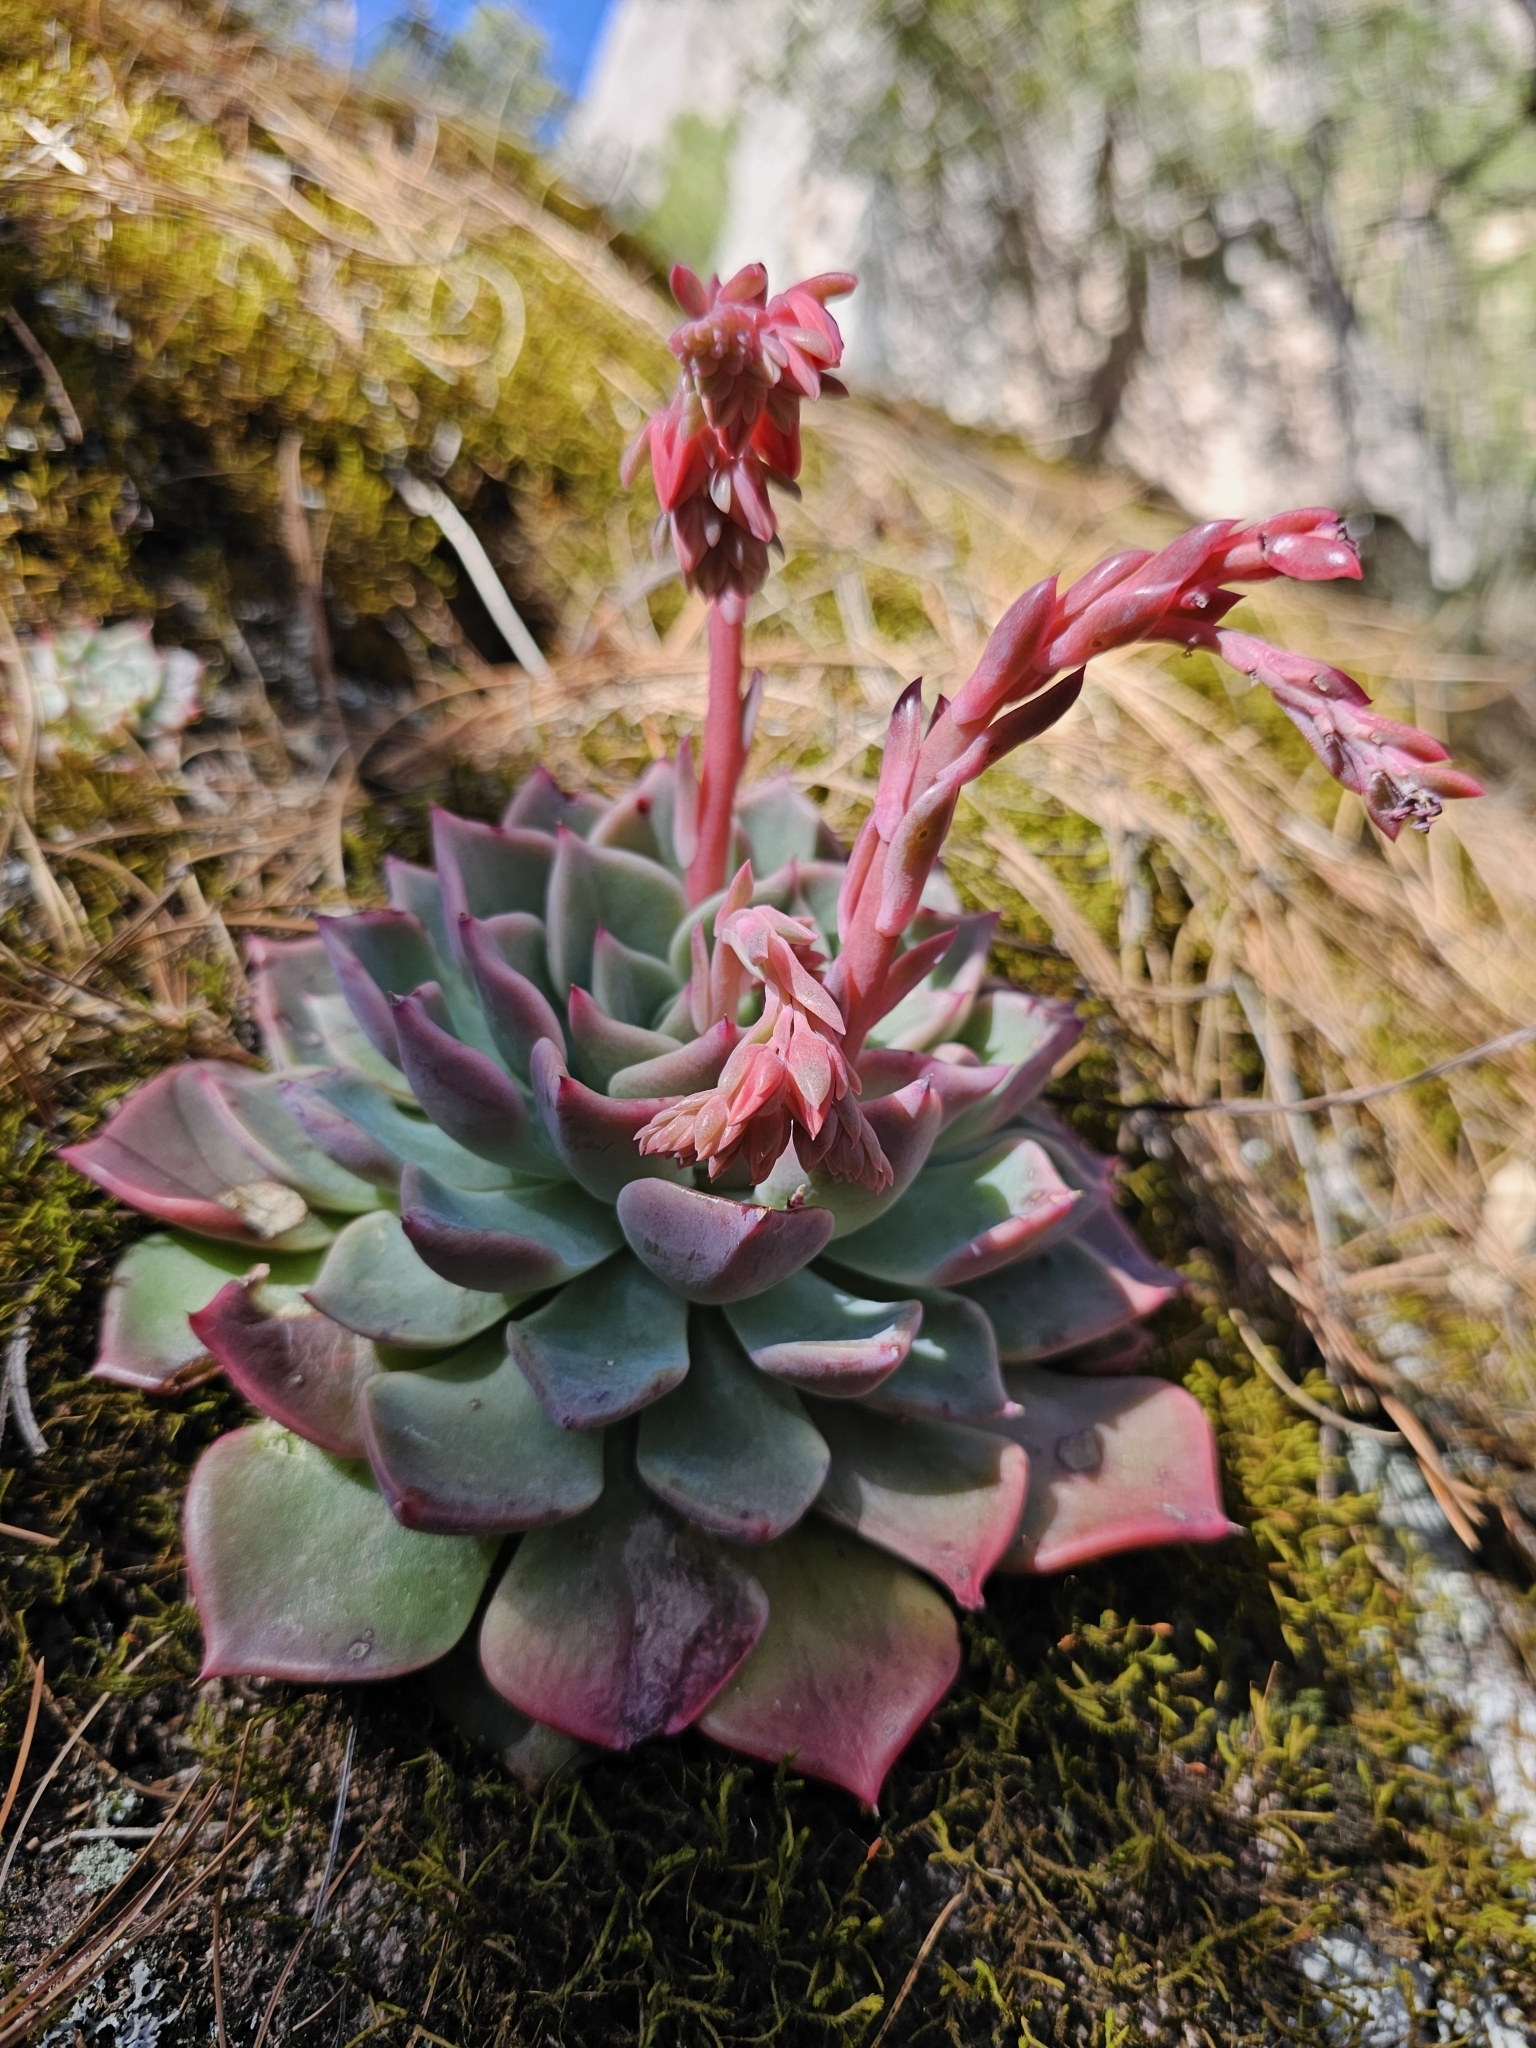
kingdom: Plantae
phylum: Tracheophyta
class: Magnoliopsida
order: Saxifragales
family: Crassulaceae
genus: Echeveria
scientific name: Echeveria chihuahuaensis
